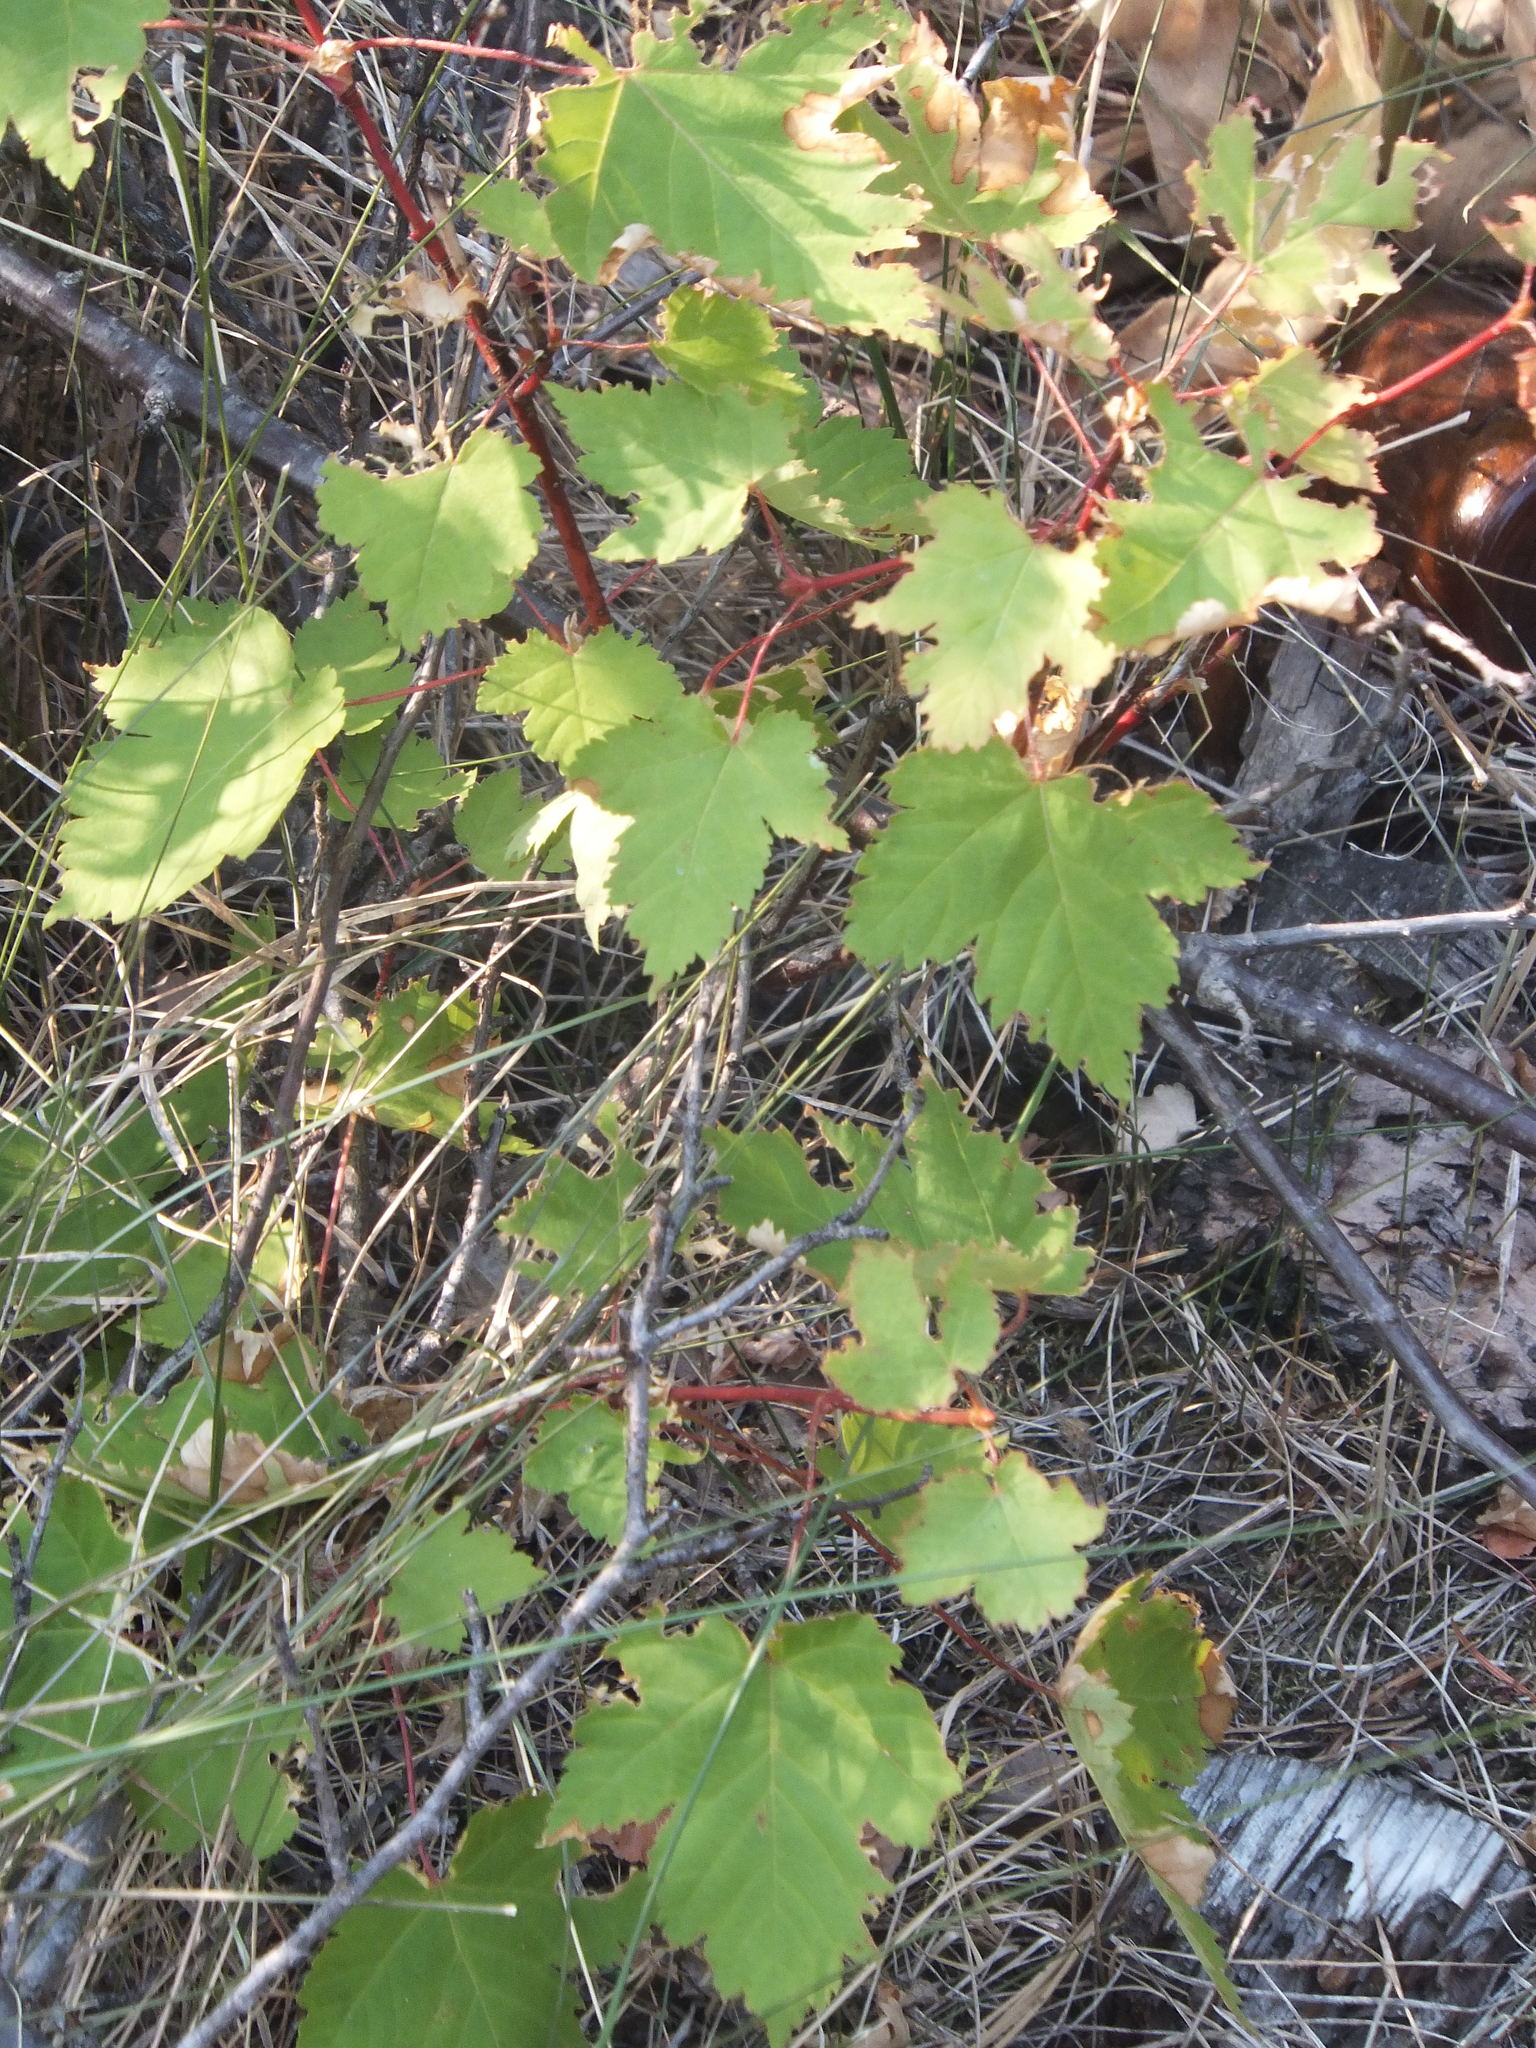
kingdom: Plantae
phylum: Tracheophyta
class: Magnoliopsida
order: Sapindales
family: Sapindaceae
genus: Acer
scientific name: Acer glabrum
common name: Rocky mountain maple
